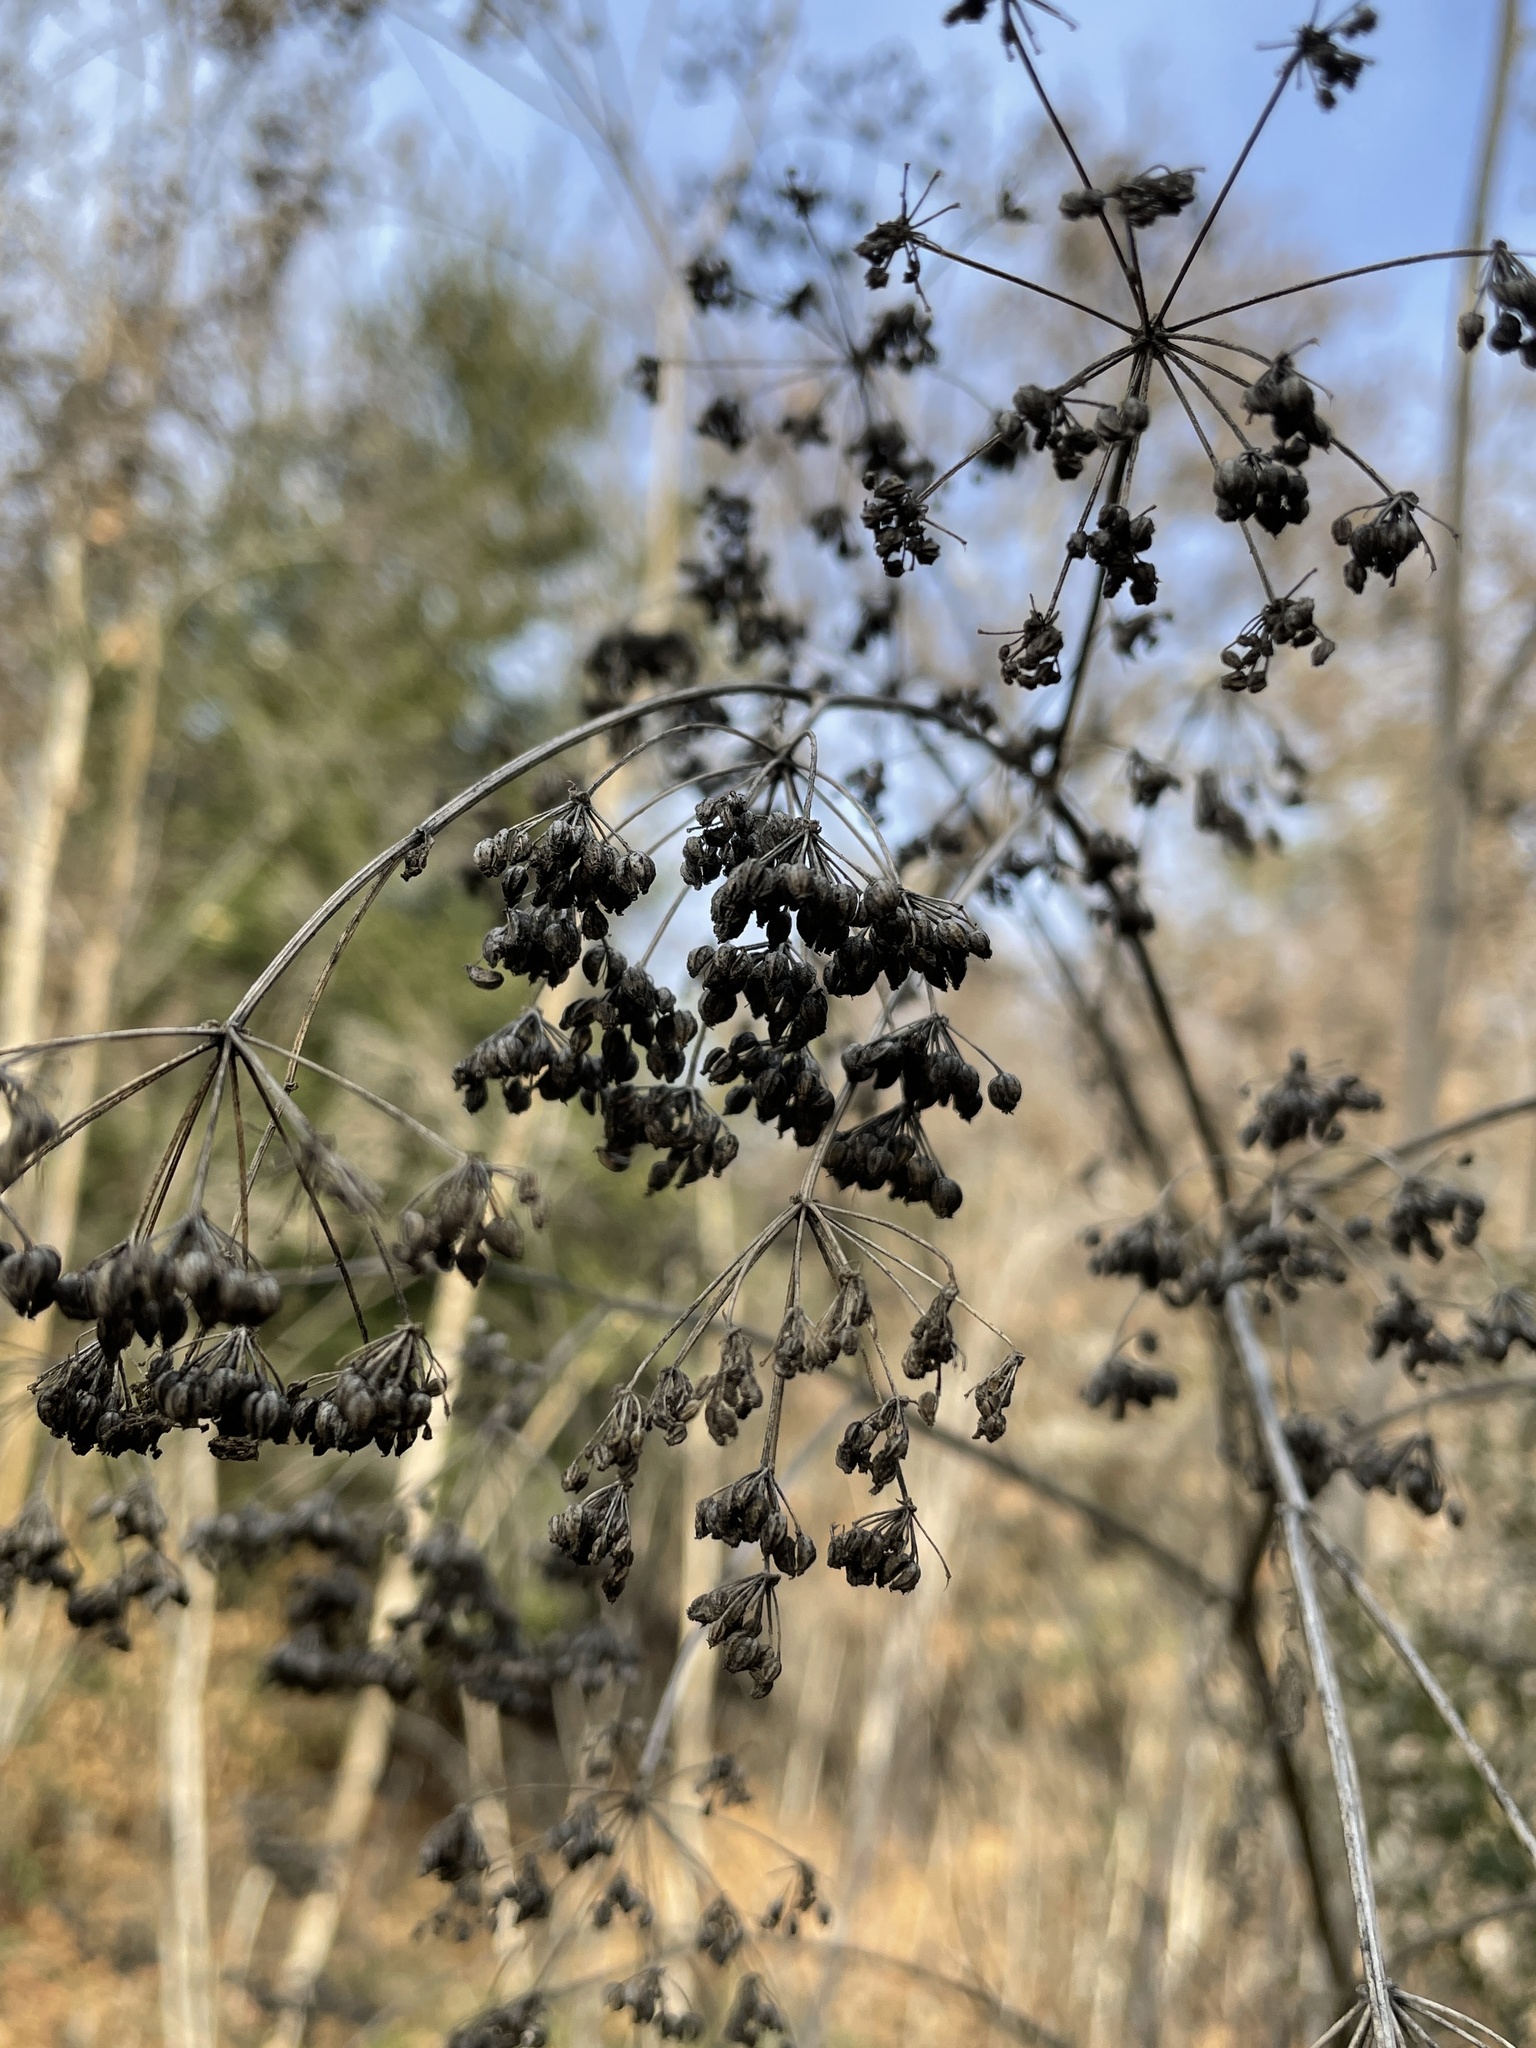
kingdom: Plantae
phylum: Tracheophyta
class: Magnoliopsida
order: Apiales
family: Apiaceae
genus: Conium
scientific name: Conium maculatum
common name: Hemlock
